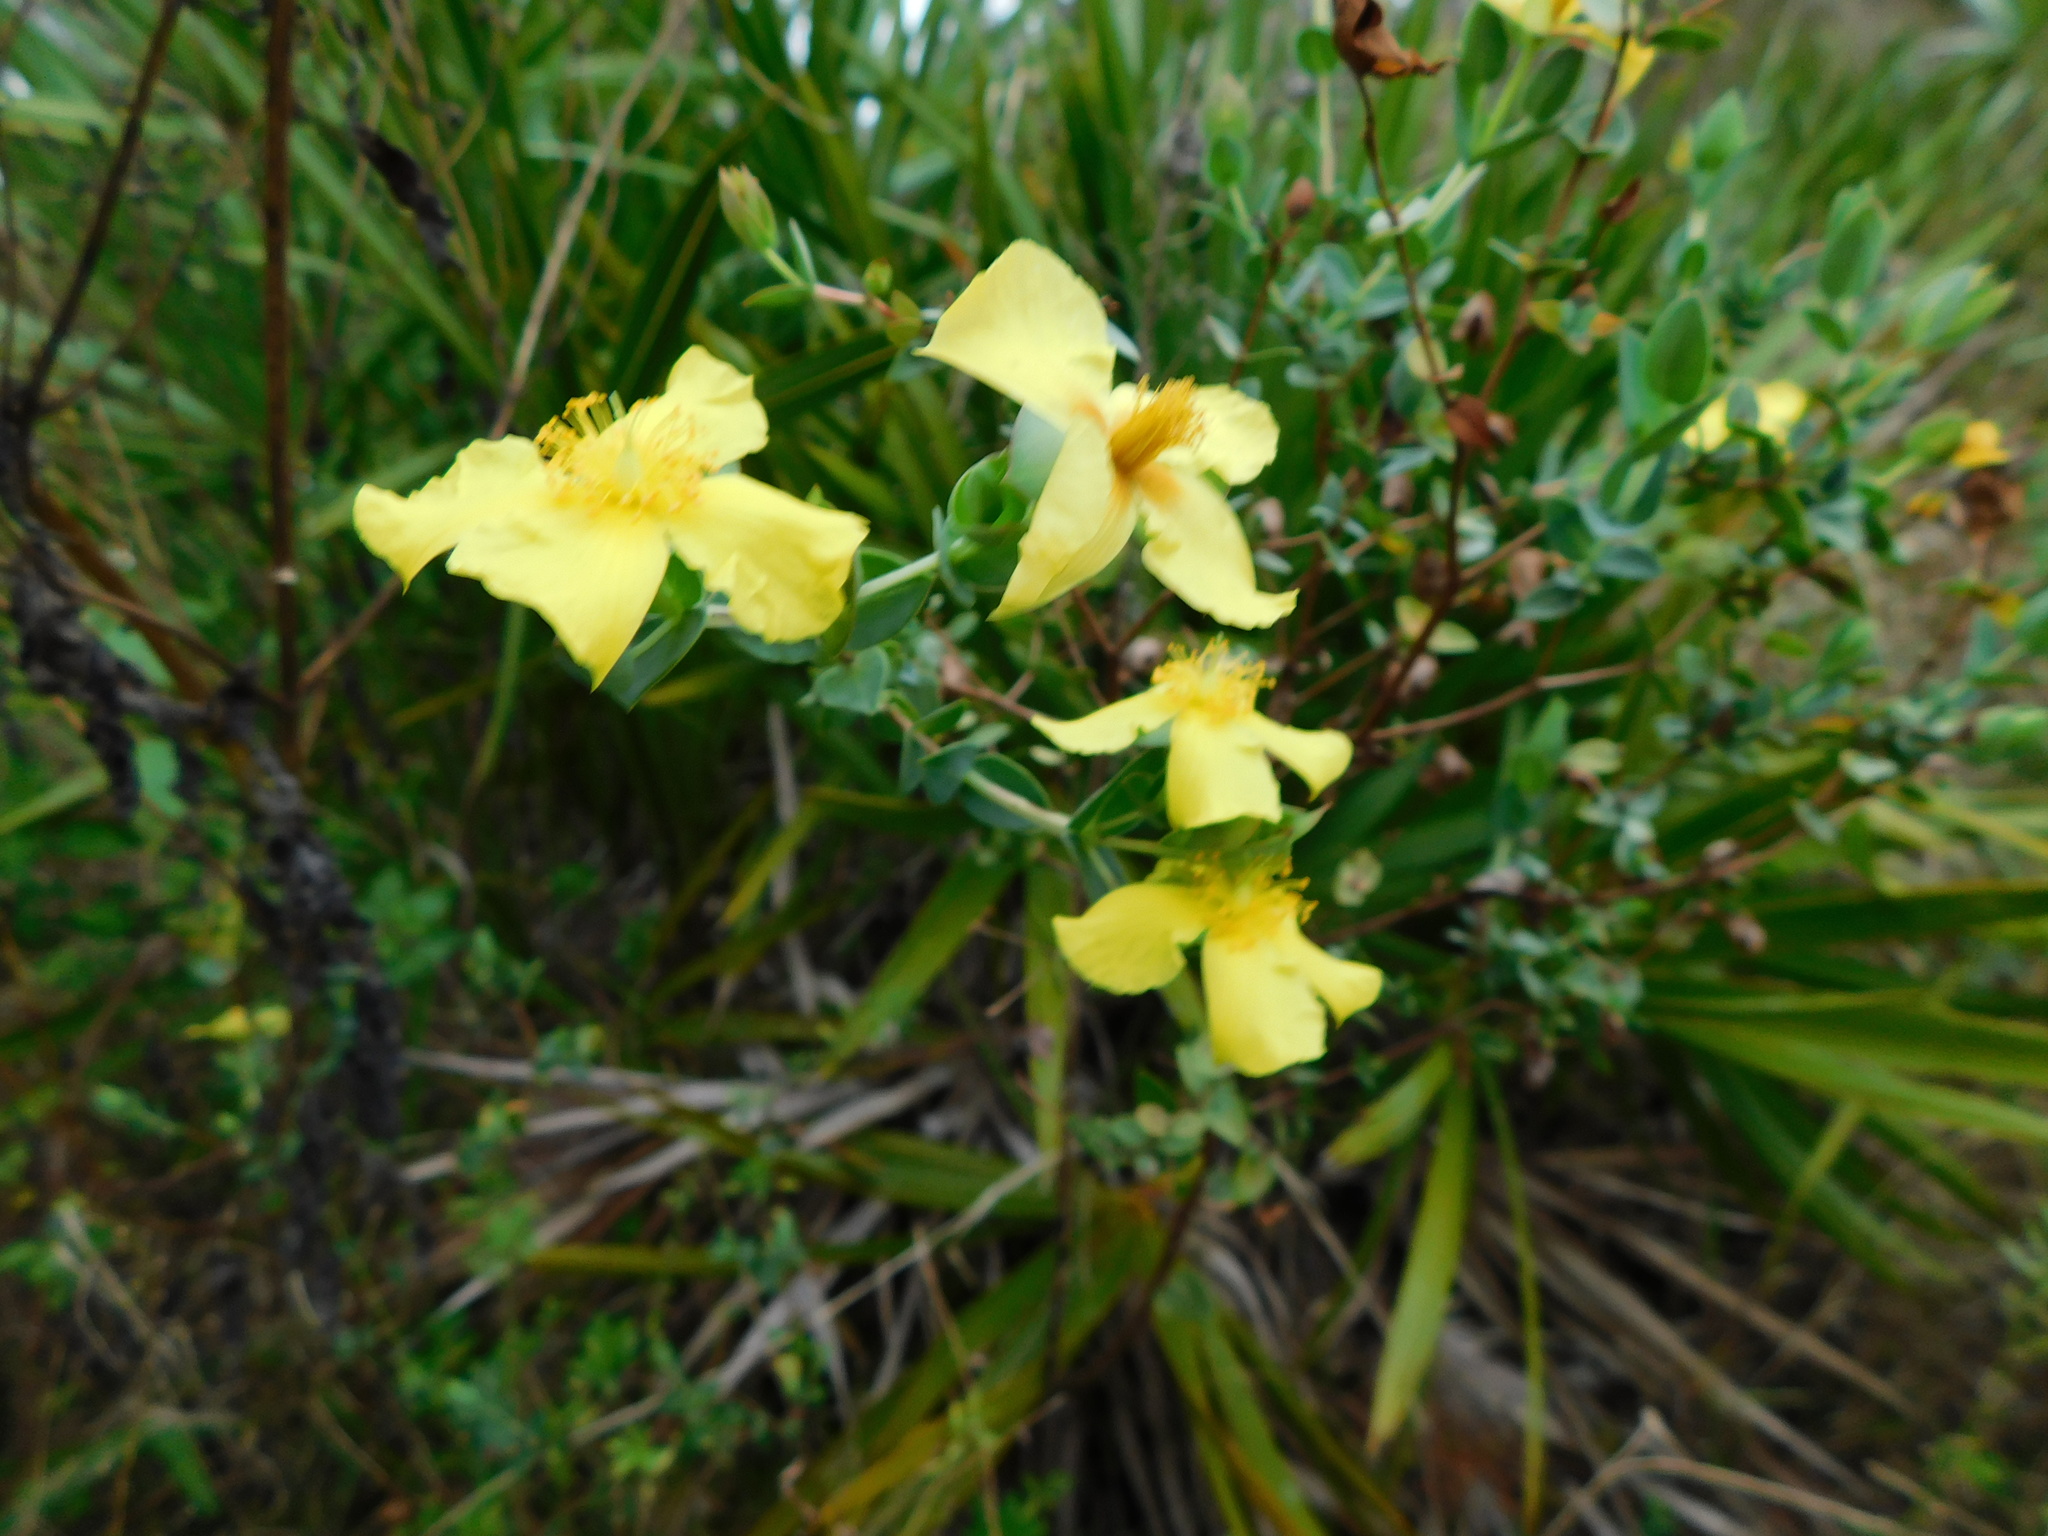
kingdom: Plantae
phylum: Tracheophyta
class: Magnoliopsida
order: Malpighiales
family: Hypericaceae
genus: Hypericum
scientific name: Hypericum tetrapetalum
